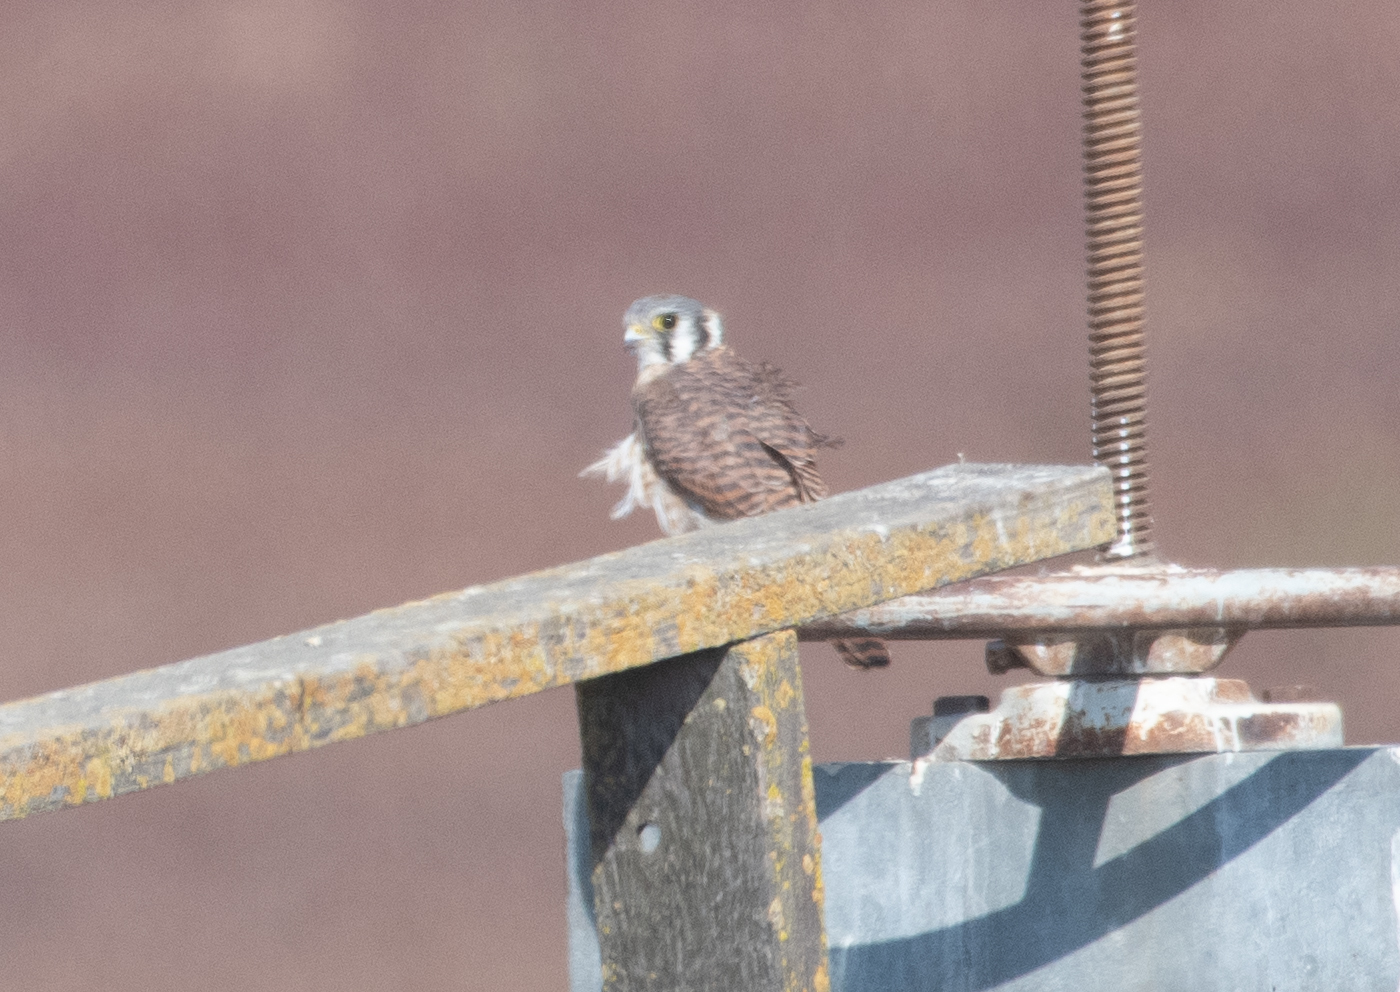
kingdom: Animalia
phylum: Chordata
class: Aves
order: Falconiformes
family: Falconidae
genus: Falco
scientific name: Falco sparverius
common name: American kestrel
